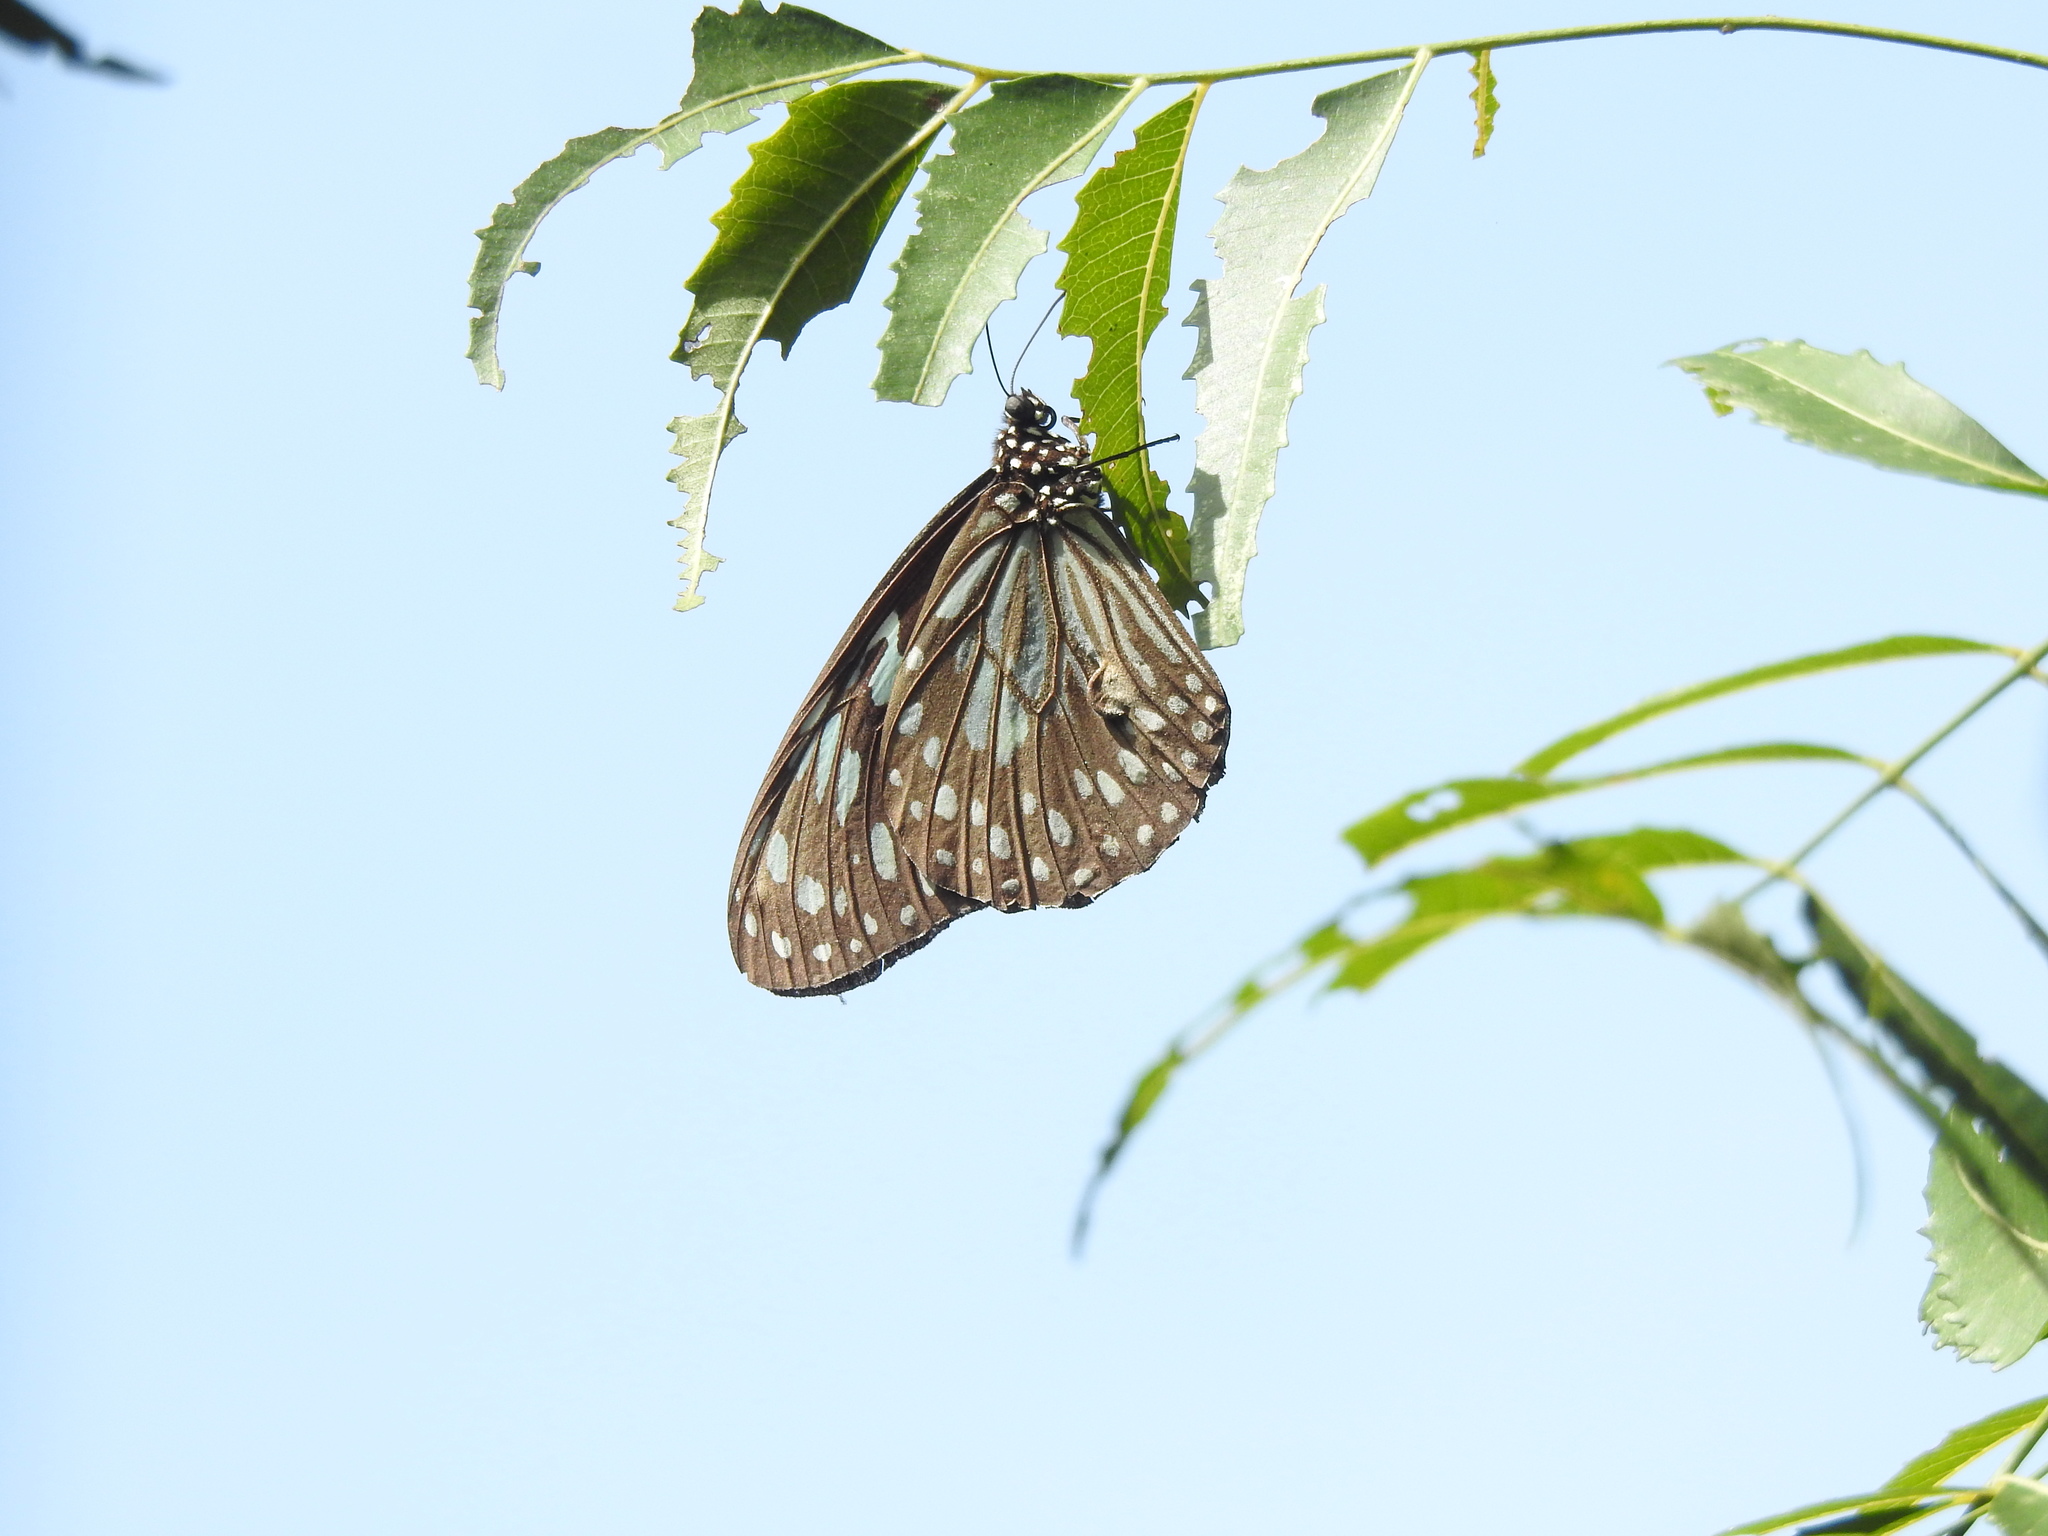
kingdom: Animalia
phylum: Arthropoda
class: Insecta
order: Lepidoptera
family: Nymphalidae
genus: Tirumala
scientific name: Tirumala septentrionis
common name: Dark blue tiger butterfly
